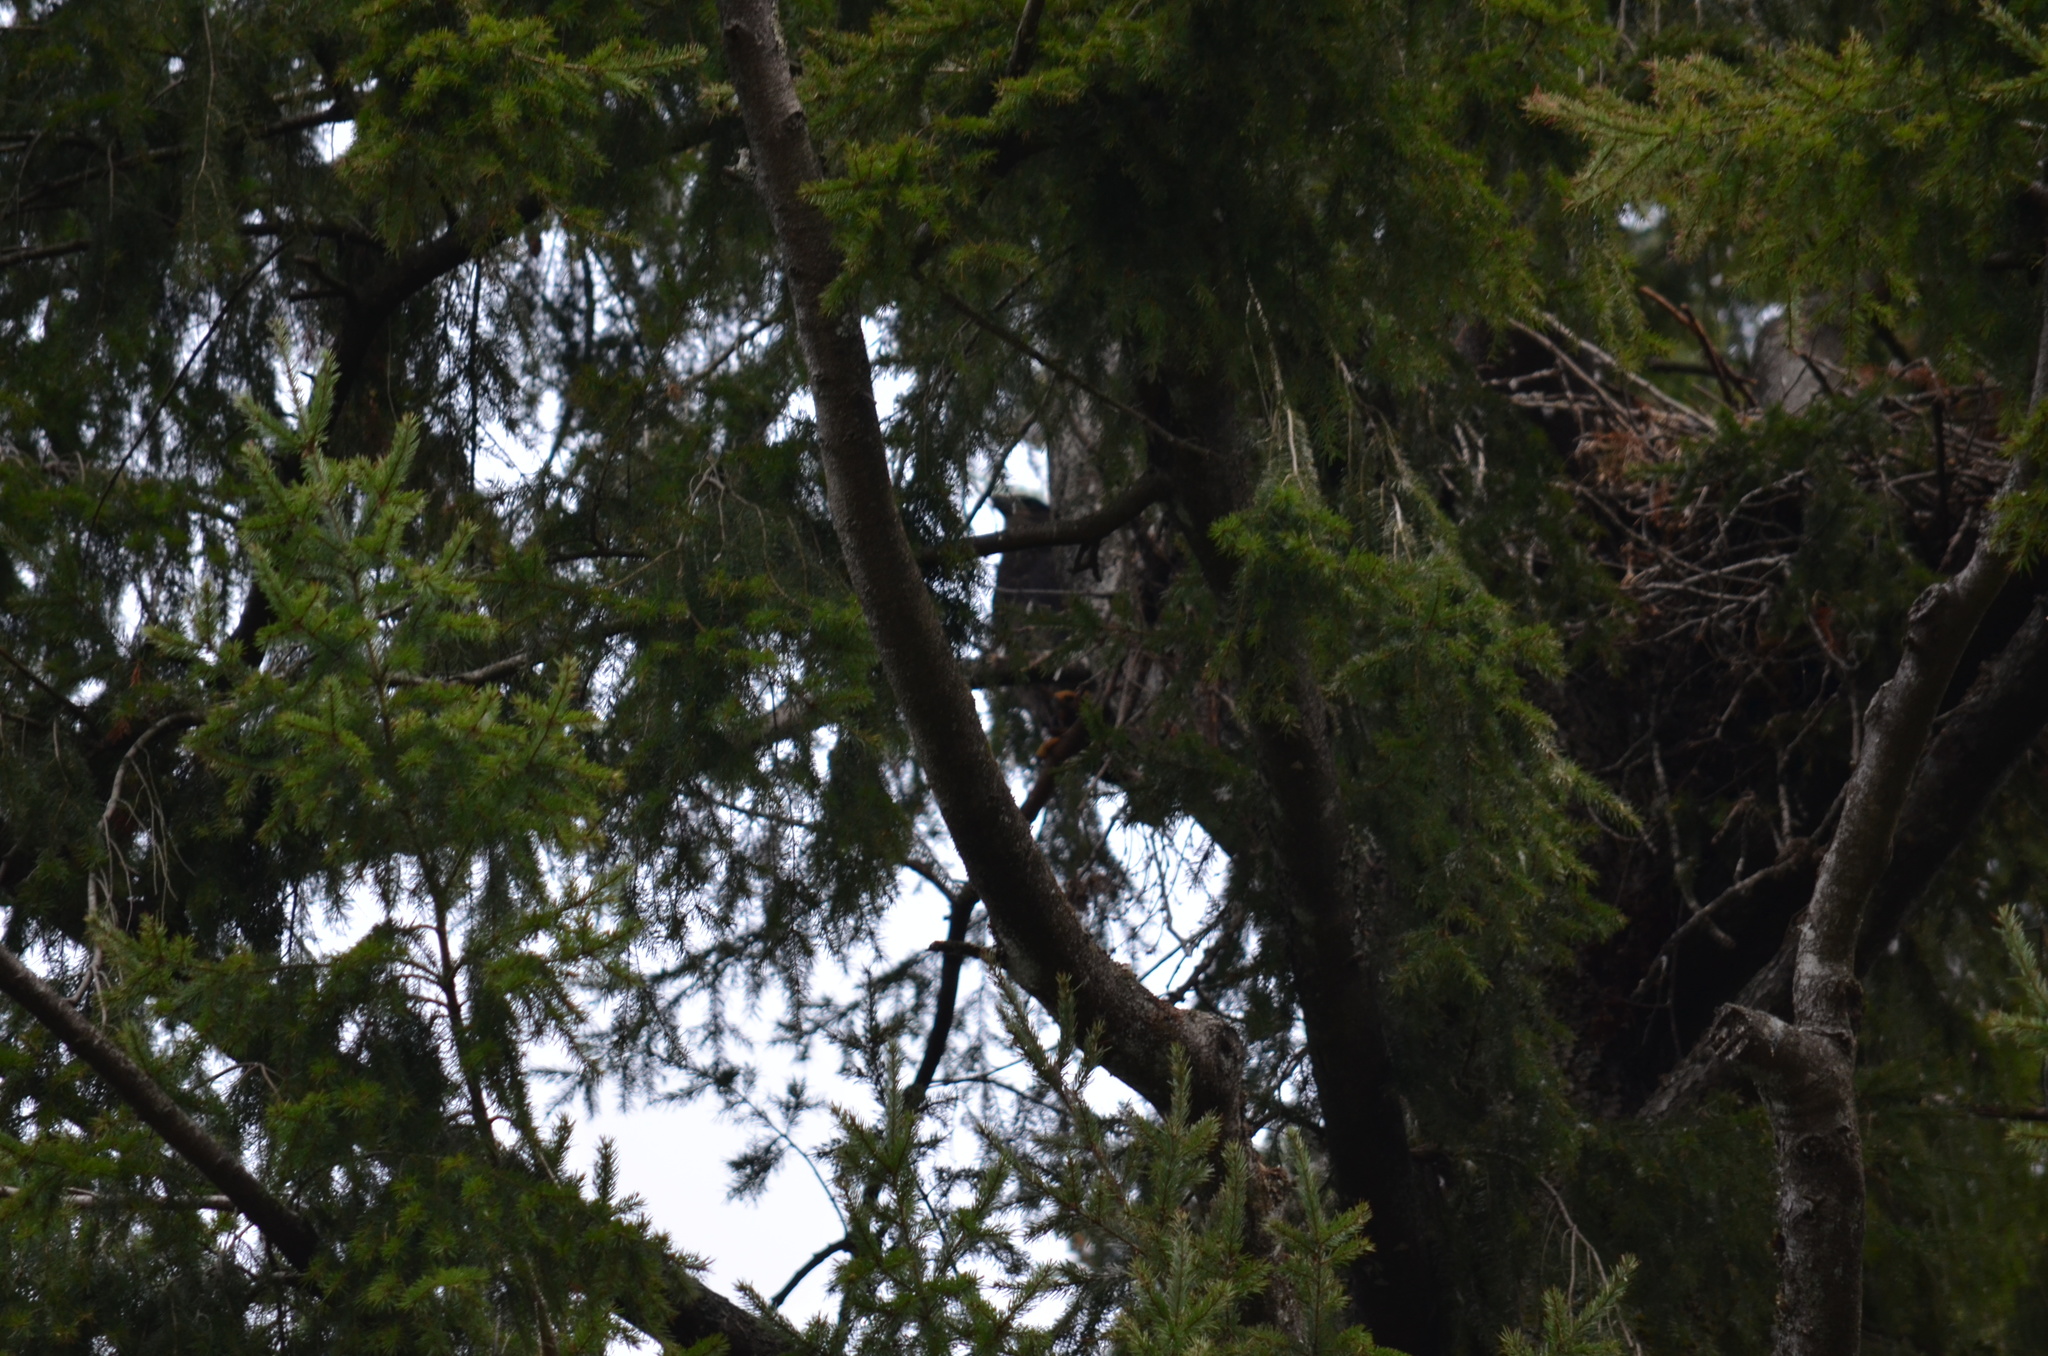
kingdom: Animalia
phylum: Chordata
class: Aves
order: Accipitriformes
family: Accipitridae
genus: Haliaeetus
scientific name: Haliaeetus leucocephalus
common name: Bald eagle
